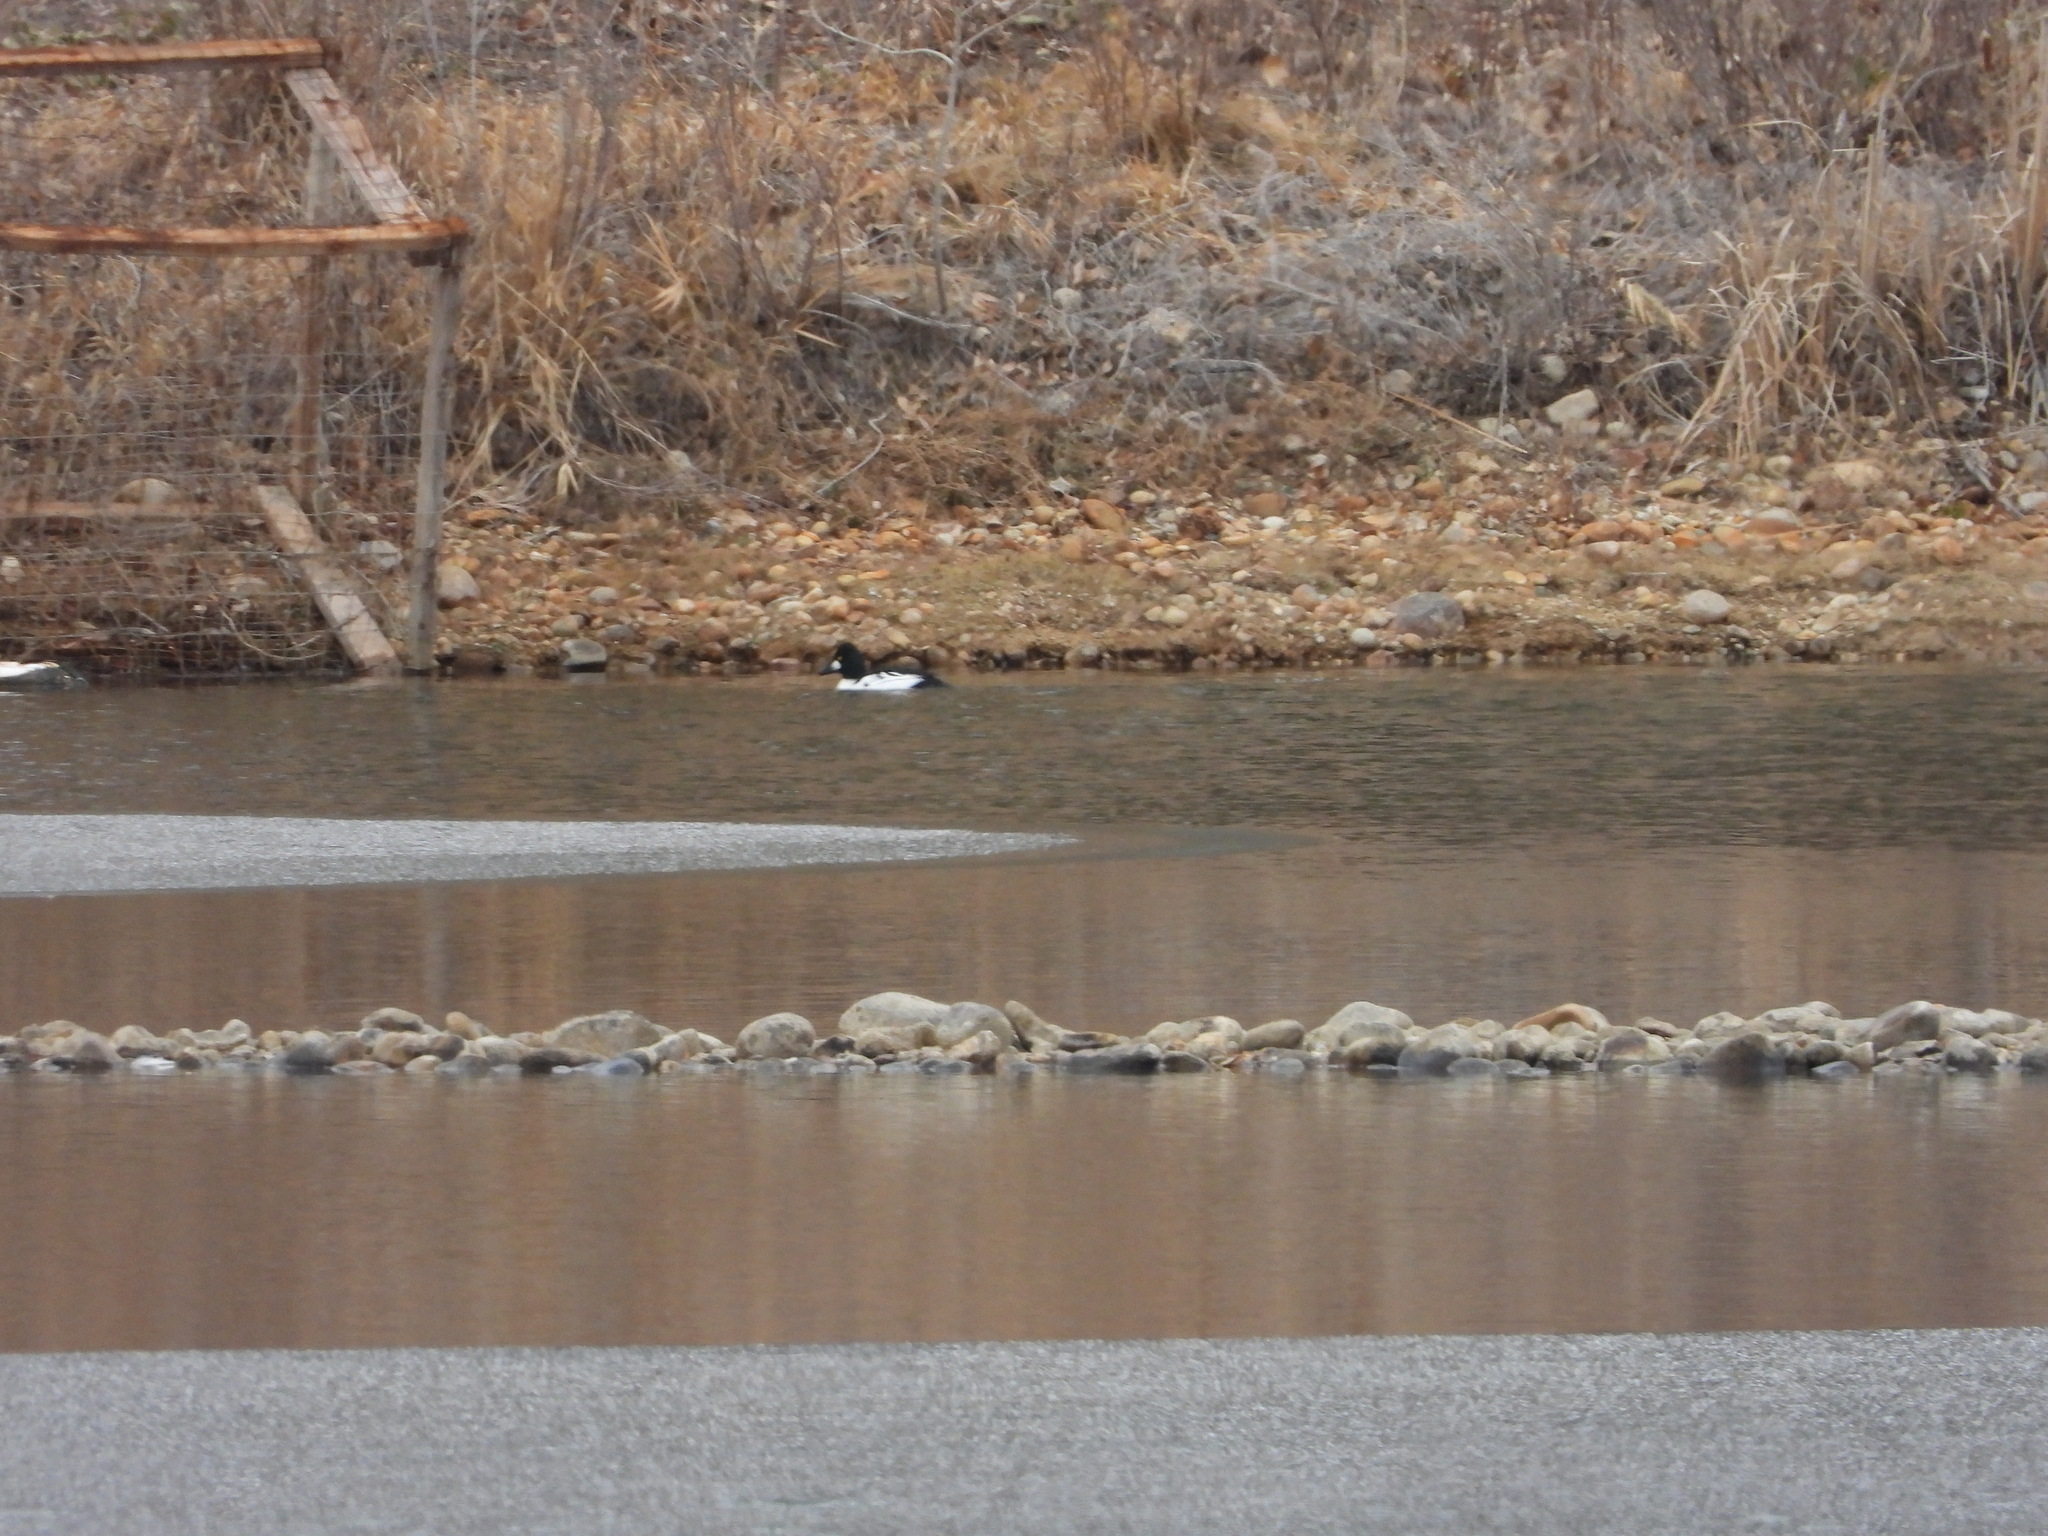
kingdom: Animalia
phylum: Chordata
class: Aves
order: Anseriformes
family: Anatidae
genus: Bucephala
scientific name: Bucephala clangula
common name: Common goldeneye
